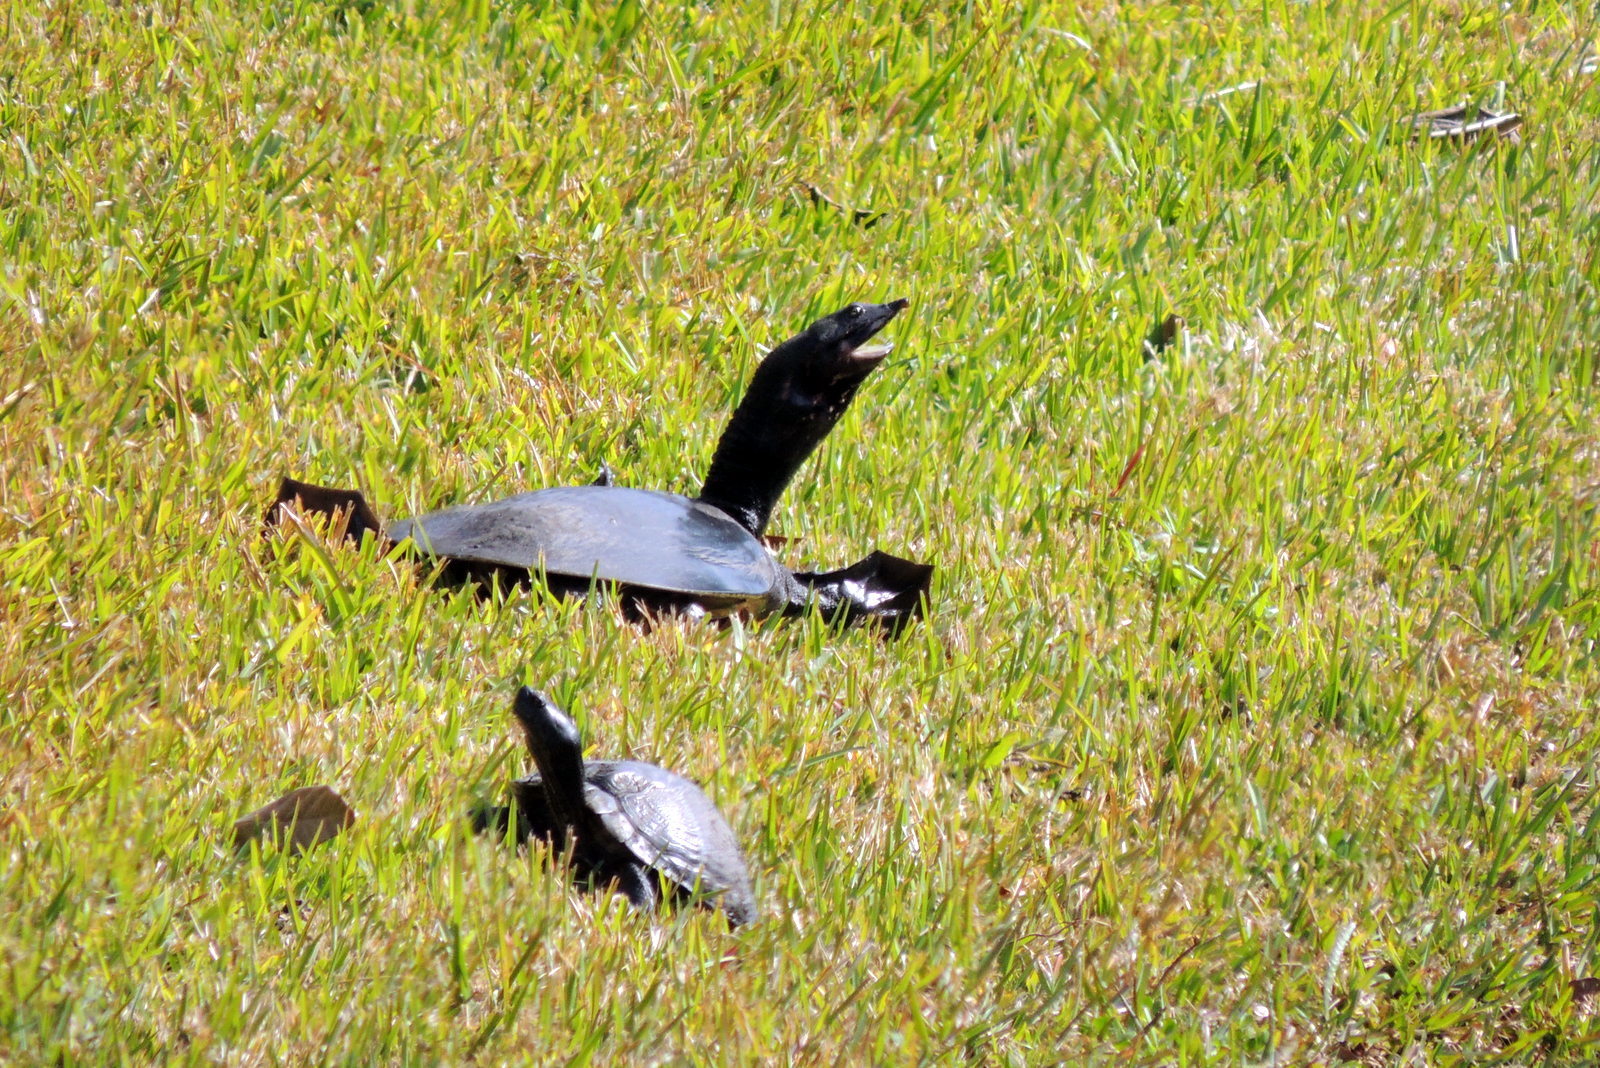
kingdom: Animalia
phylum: Chordata
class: Testudines
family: Trionychidae
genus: Apalone
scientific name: Apalone ferox
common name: Florida softshell turtle
